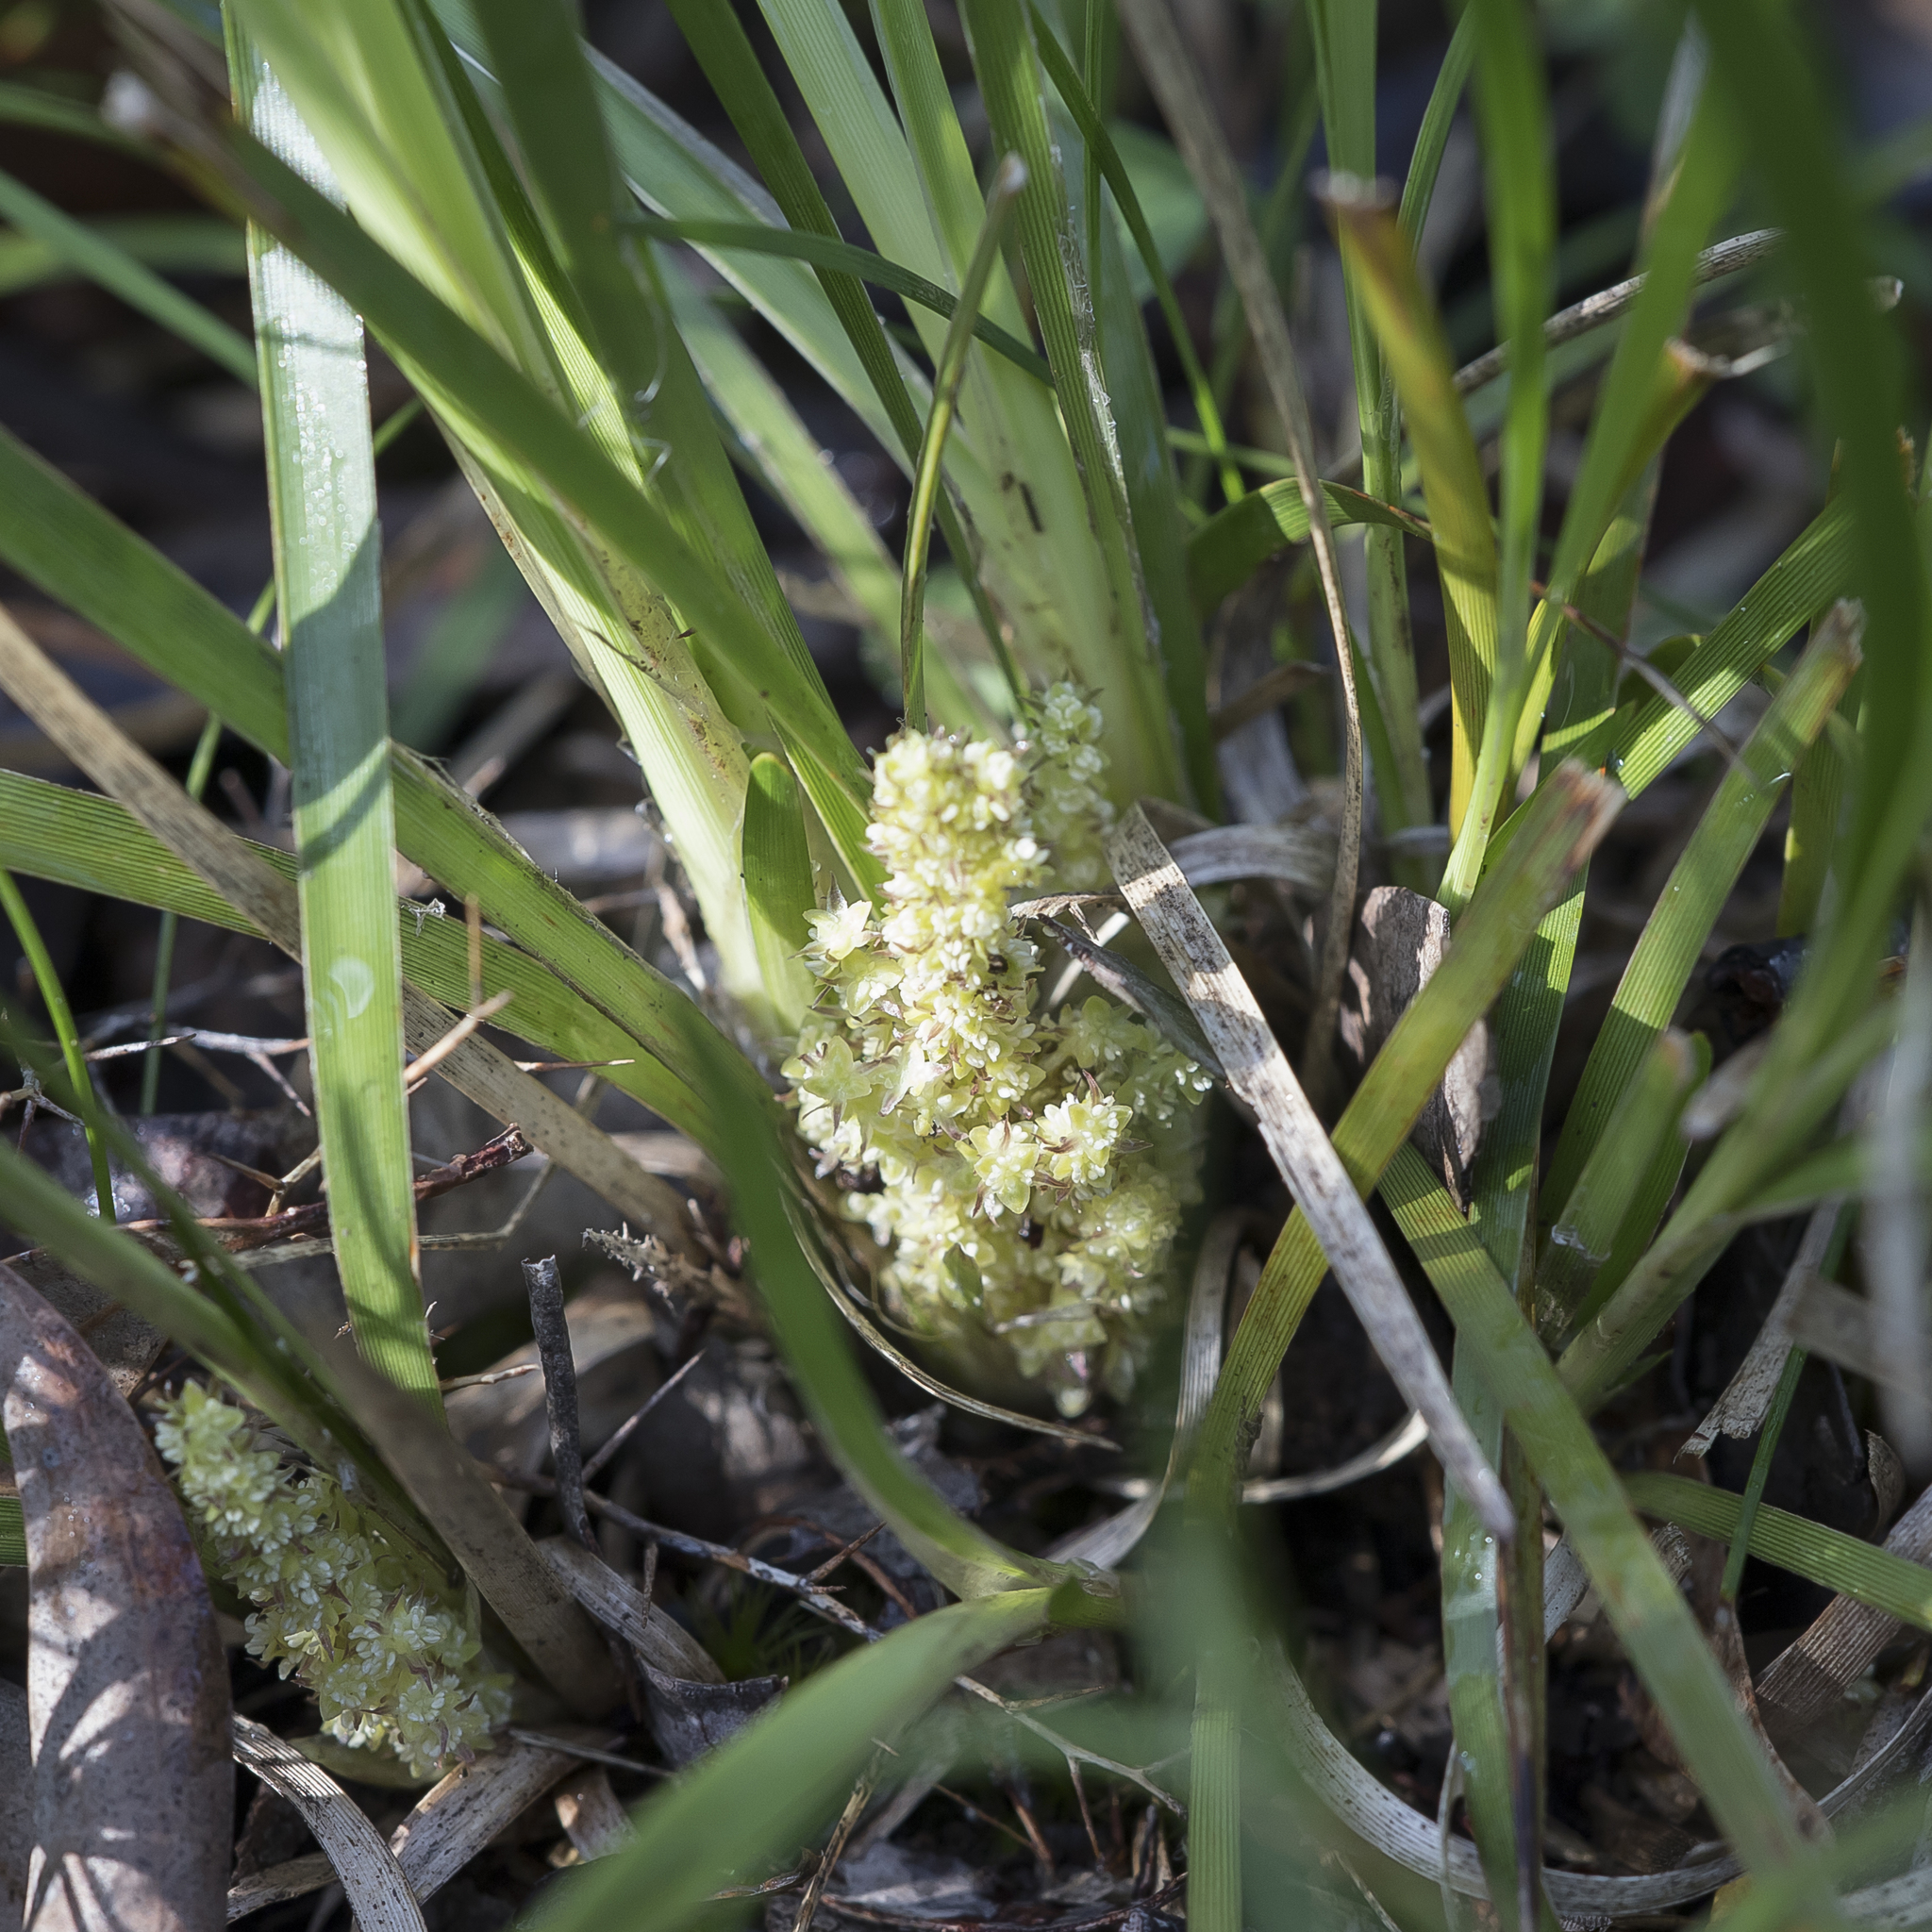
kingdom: Plantae
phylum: Tracheophyta
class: Liliopsida
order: Asparagales
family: Asparagaceae
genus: Lomandra
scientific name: Lomandra densiflora
